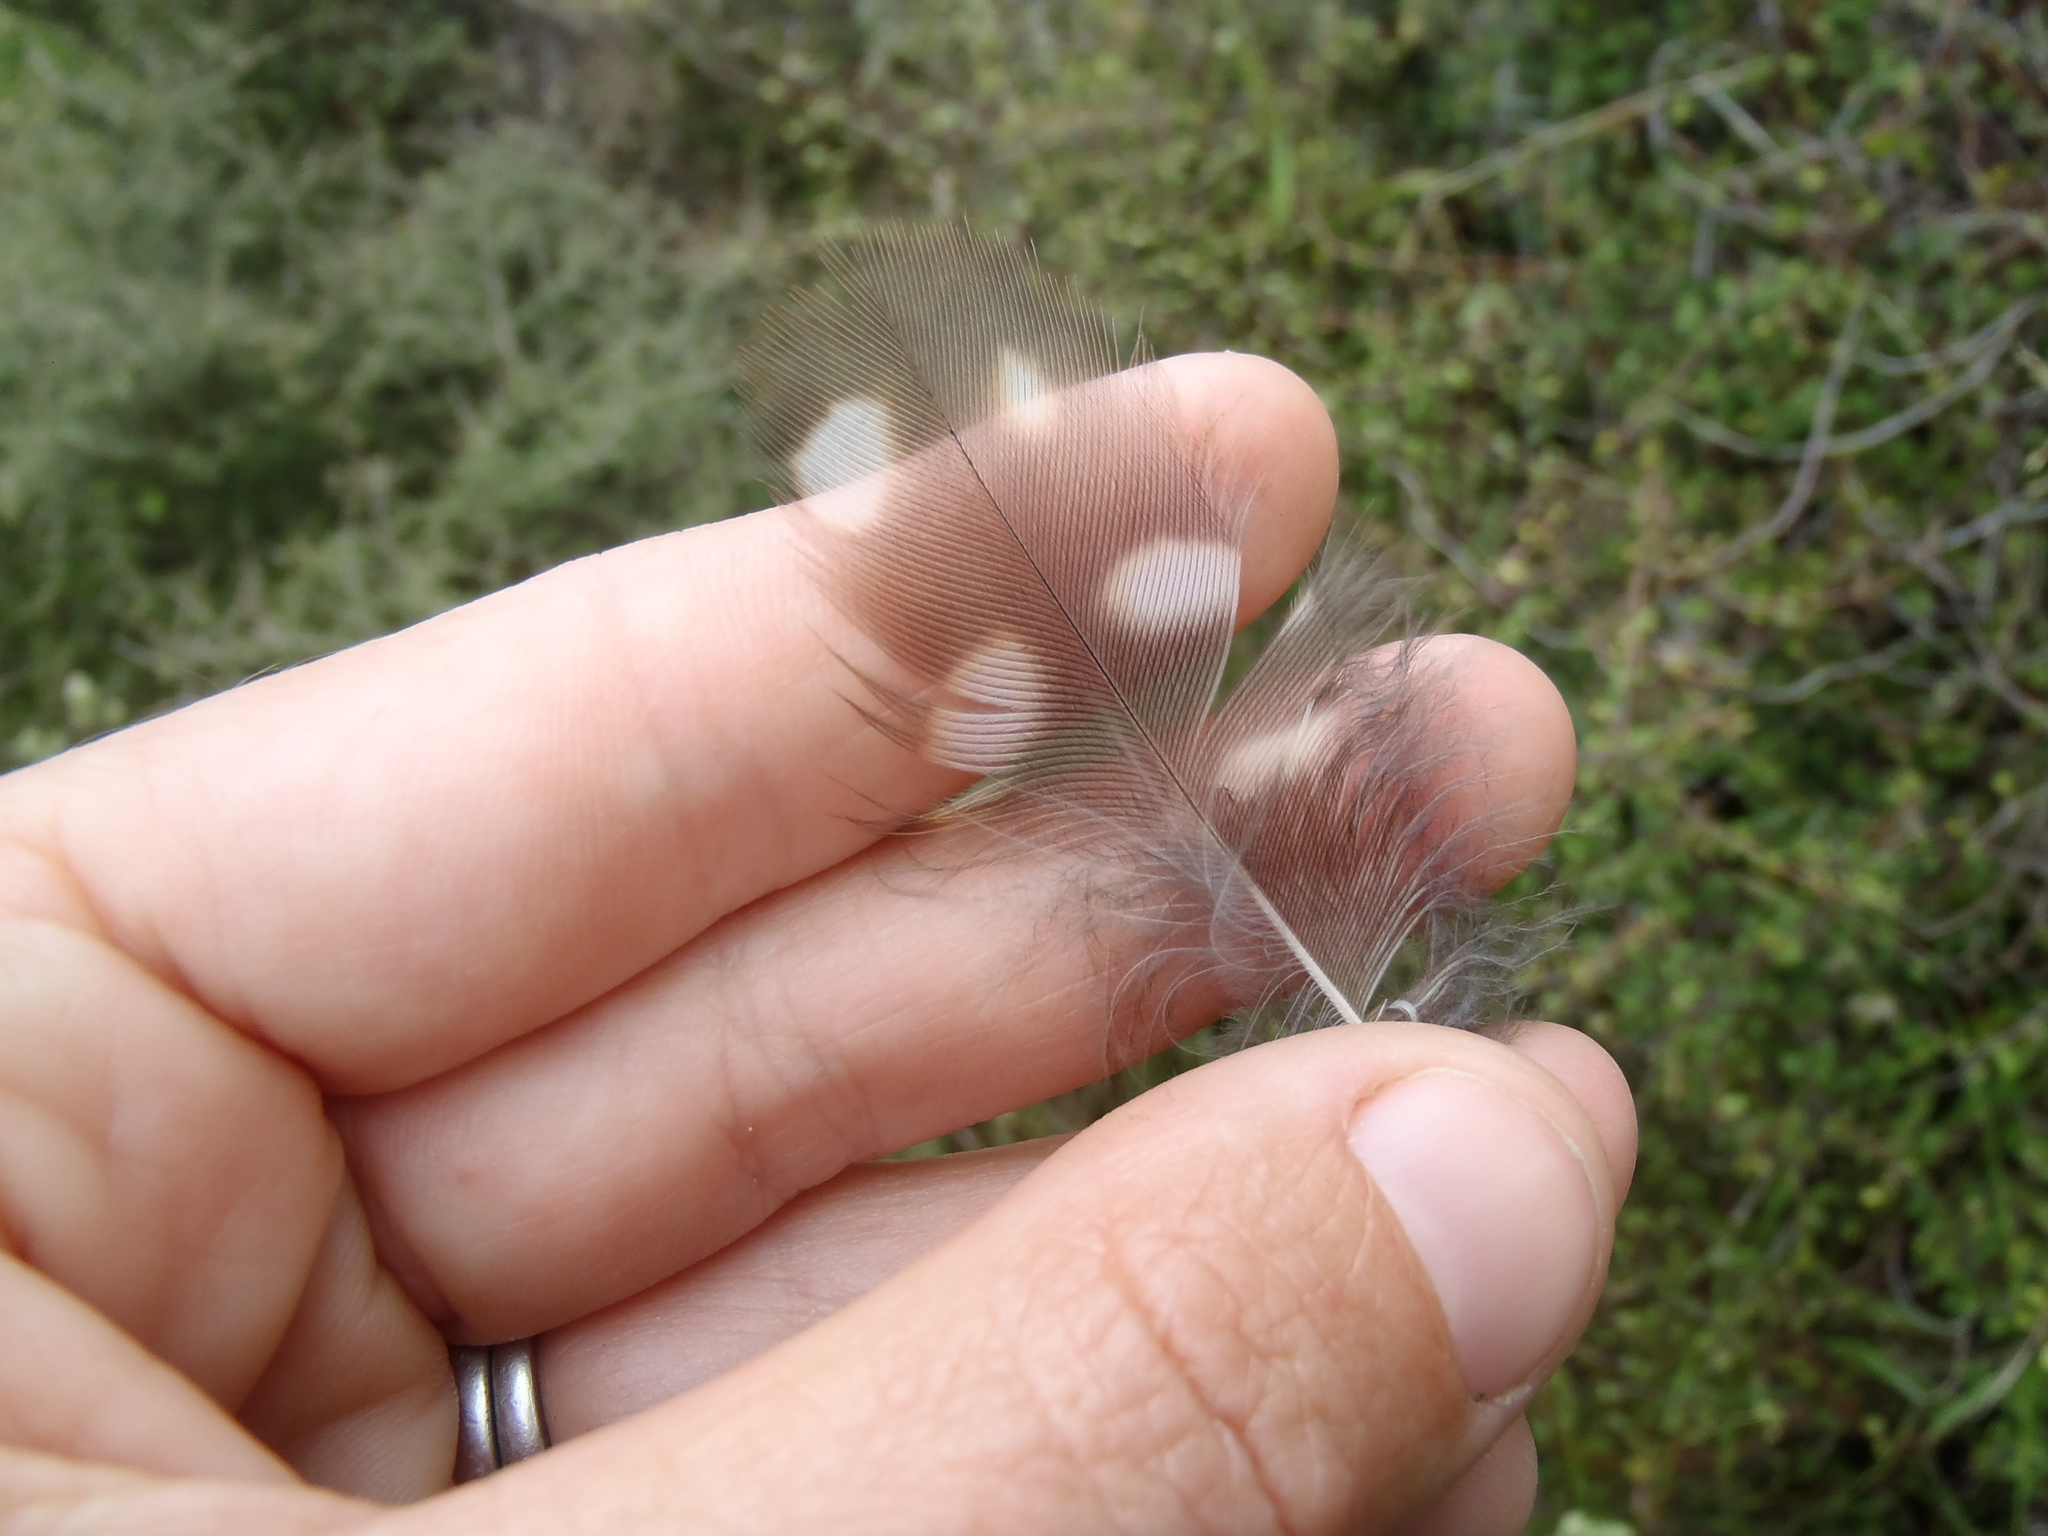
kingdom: Animalia
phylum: Chordata
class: Aves
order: Strigiformes
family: Strigidae
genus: Ninox
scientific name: Ninox novaeseelandiae
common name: Morepork
